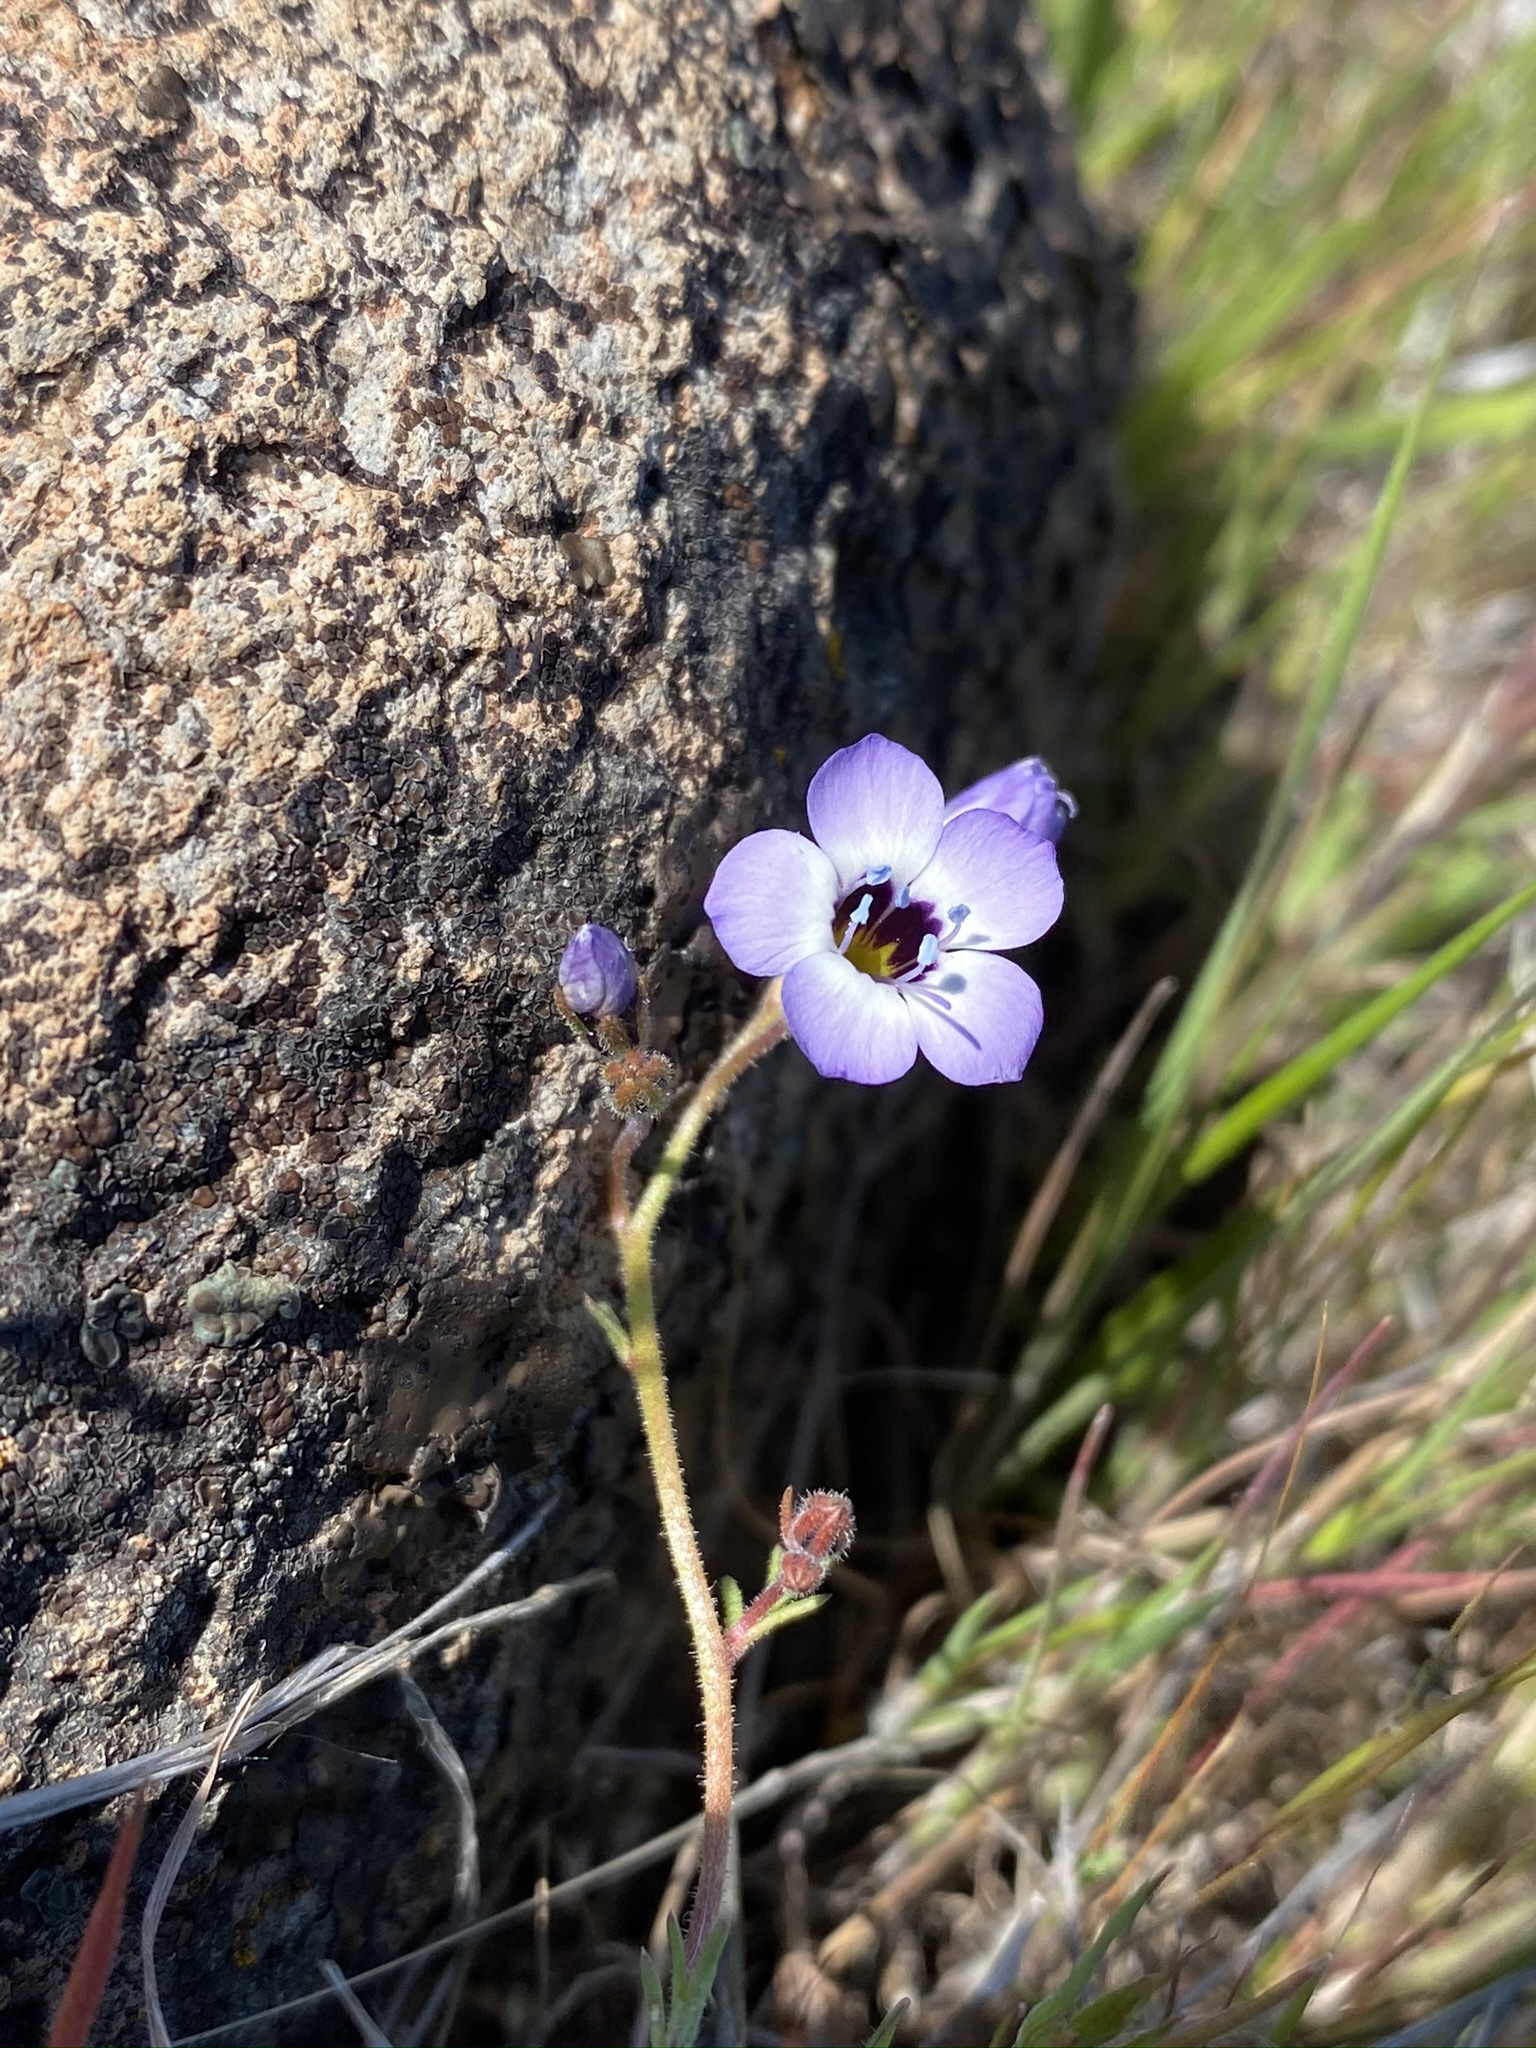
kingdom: Plantae
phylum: Tracheophyta
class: Magnoliopsida
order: Ericales
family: Polemoniaceae
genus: Gilia
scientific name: Gilia tricolor
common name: Bird's-eyes
